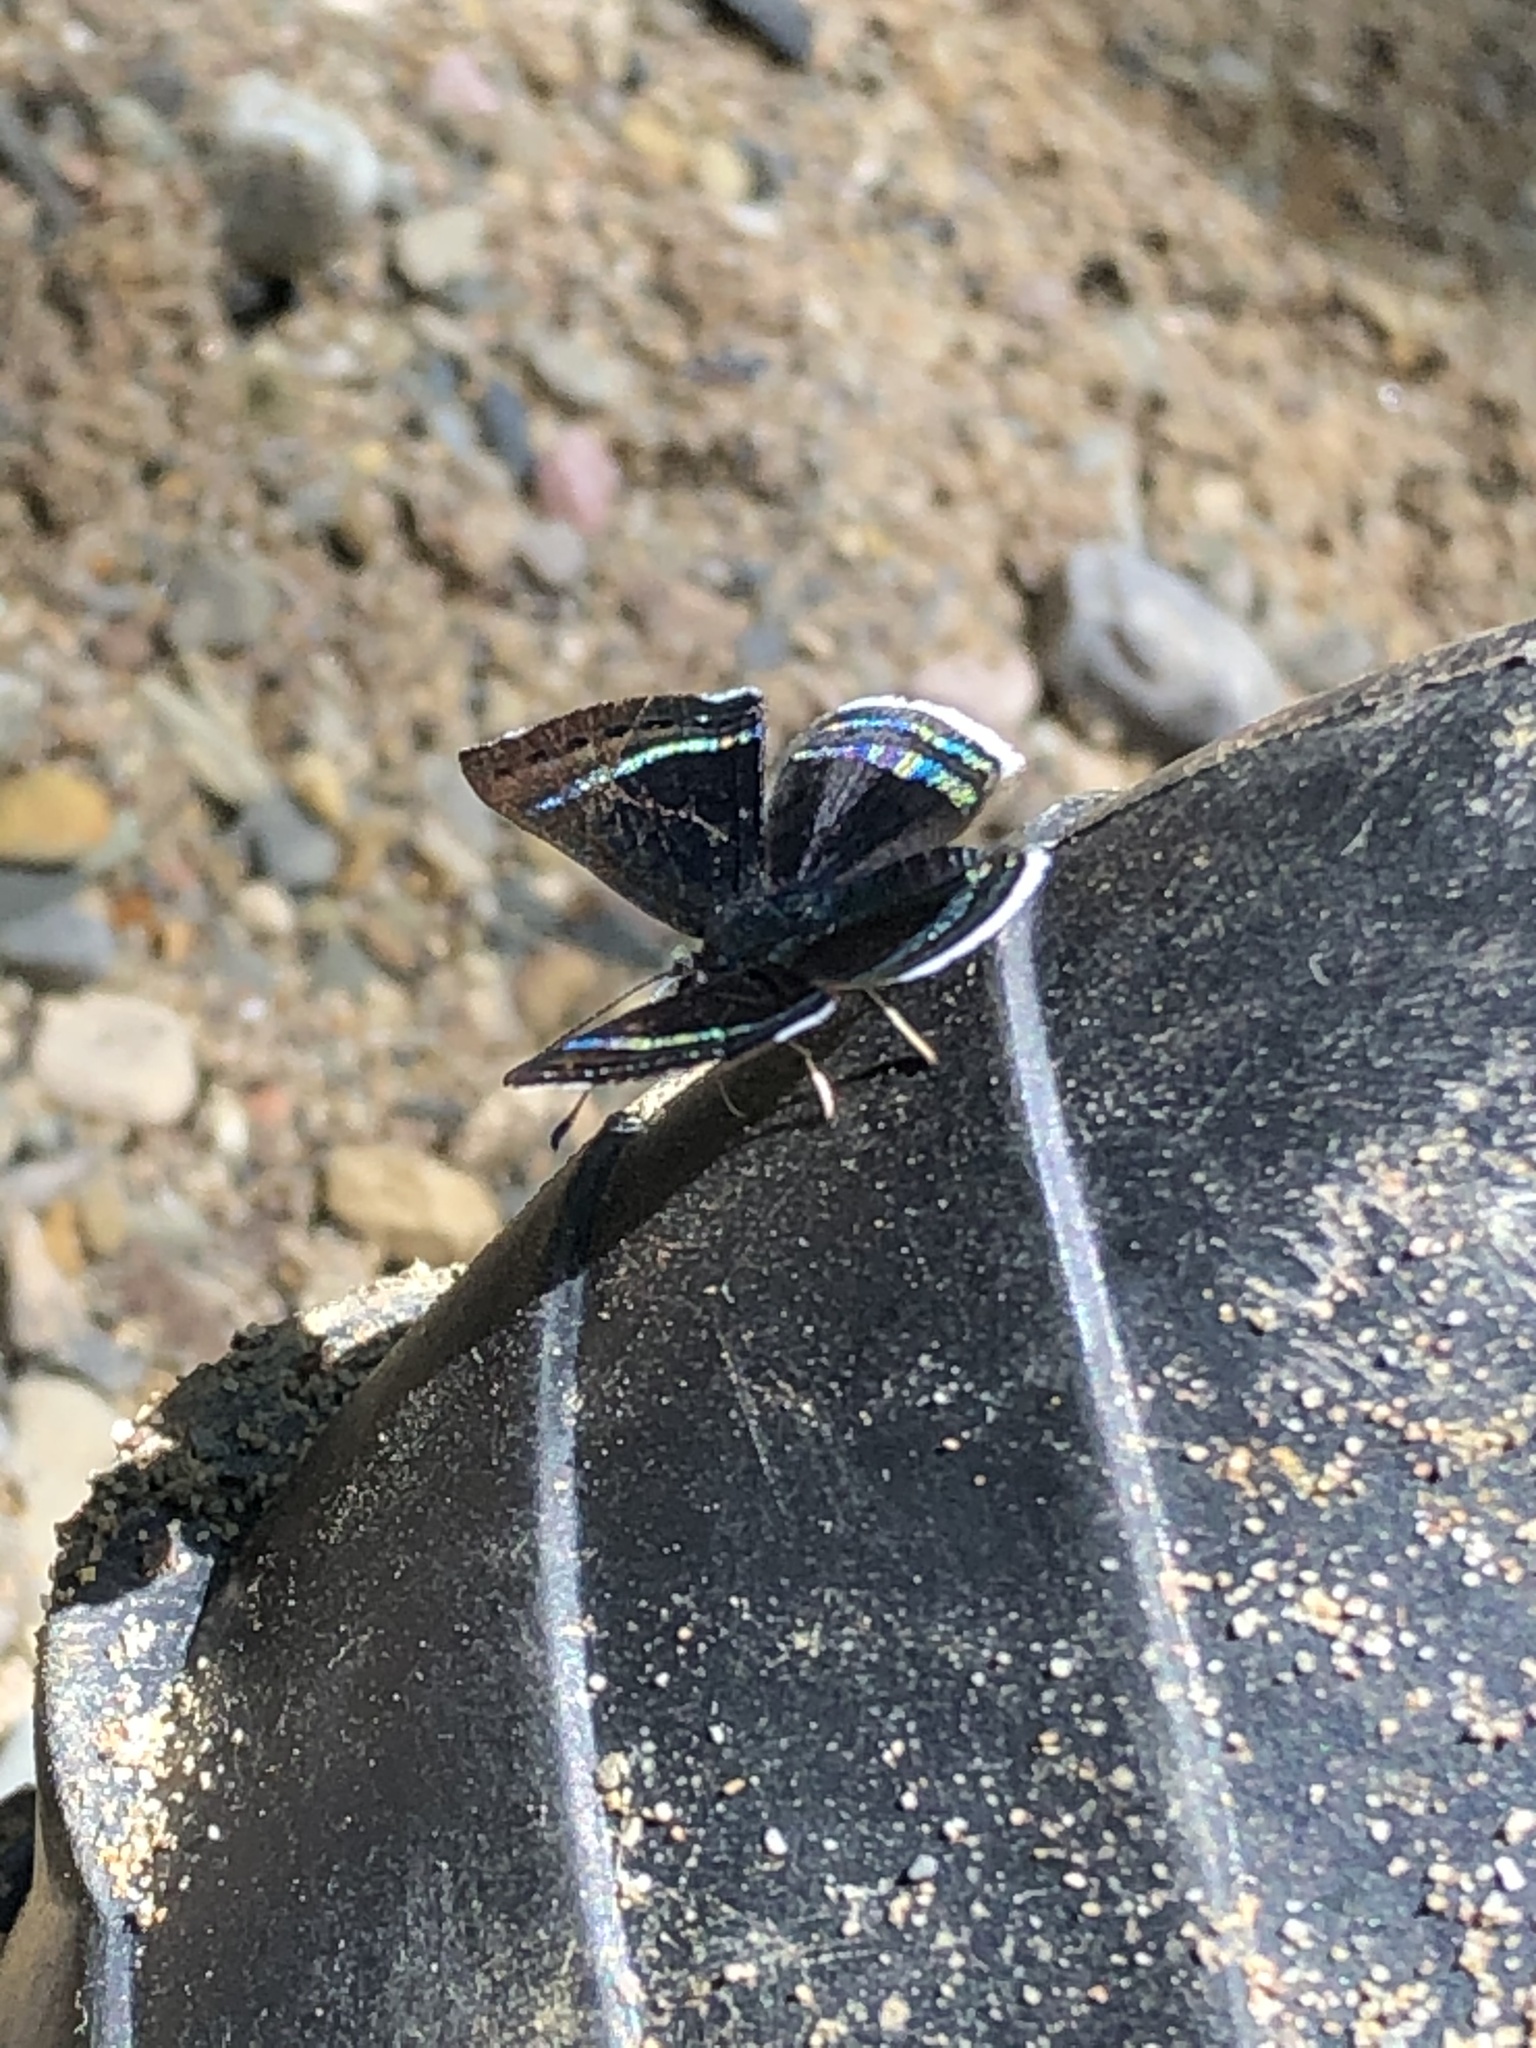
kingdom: Animalia
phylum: Arthropoda
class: Insecta
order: Lepidoptera
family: Riodinidae
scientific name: Riodinidae
